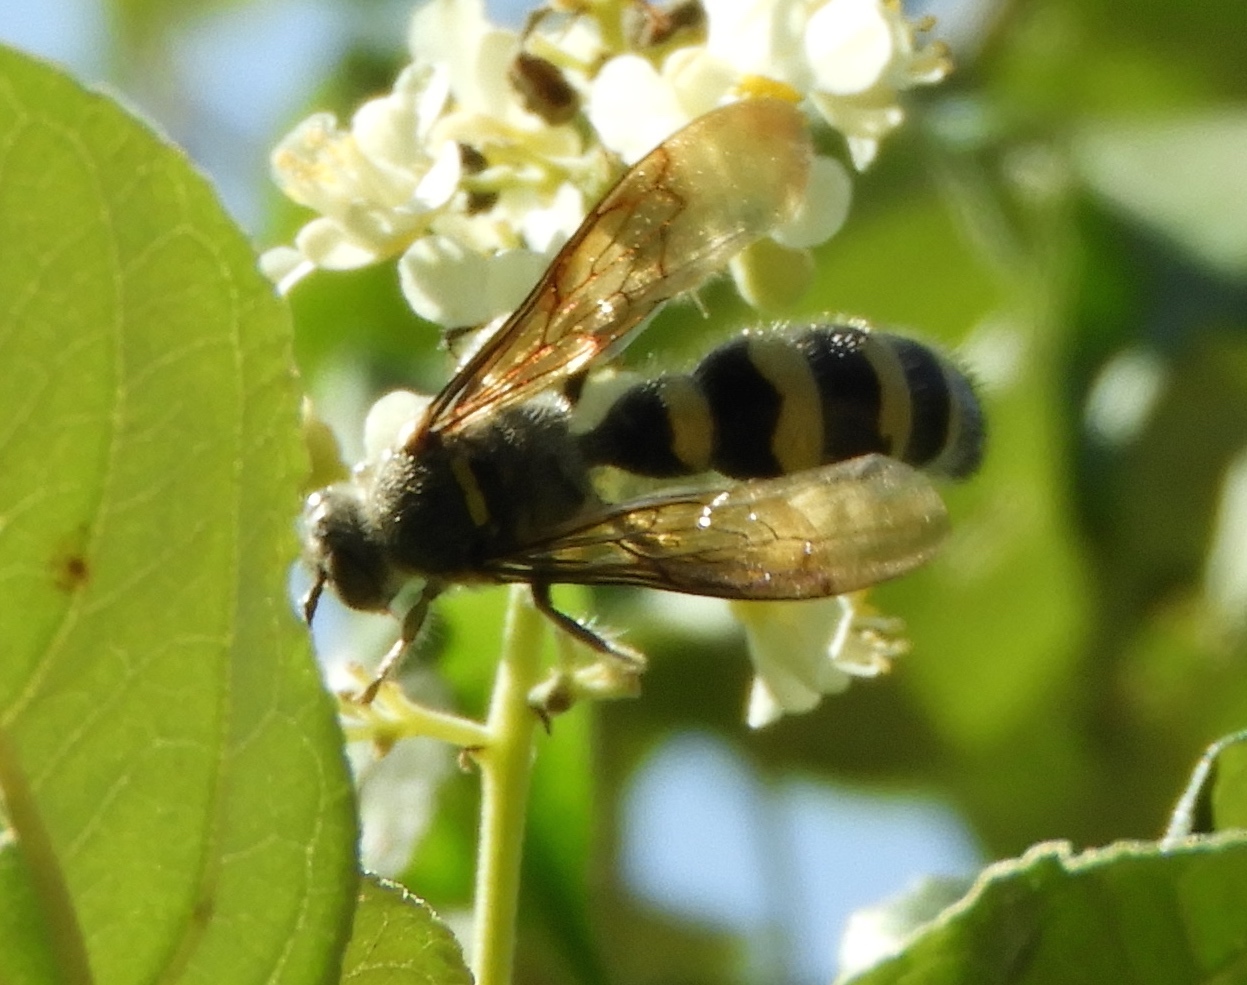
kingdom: Animalia
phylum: Arthropoda
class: Insecta
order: Hymenoptera
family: Scoliidae
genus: Dielis
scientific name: Dielis tolteca
